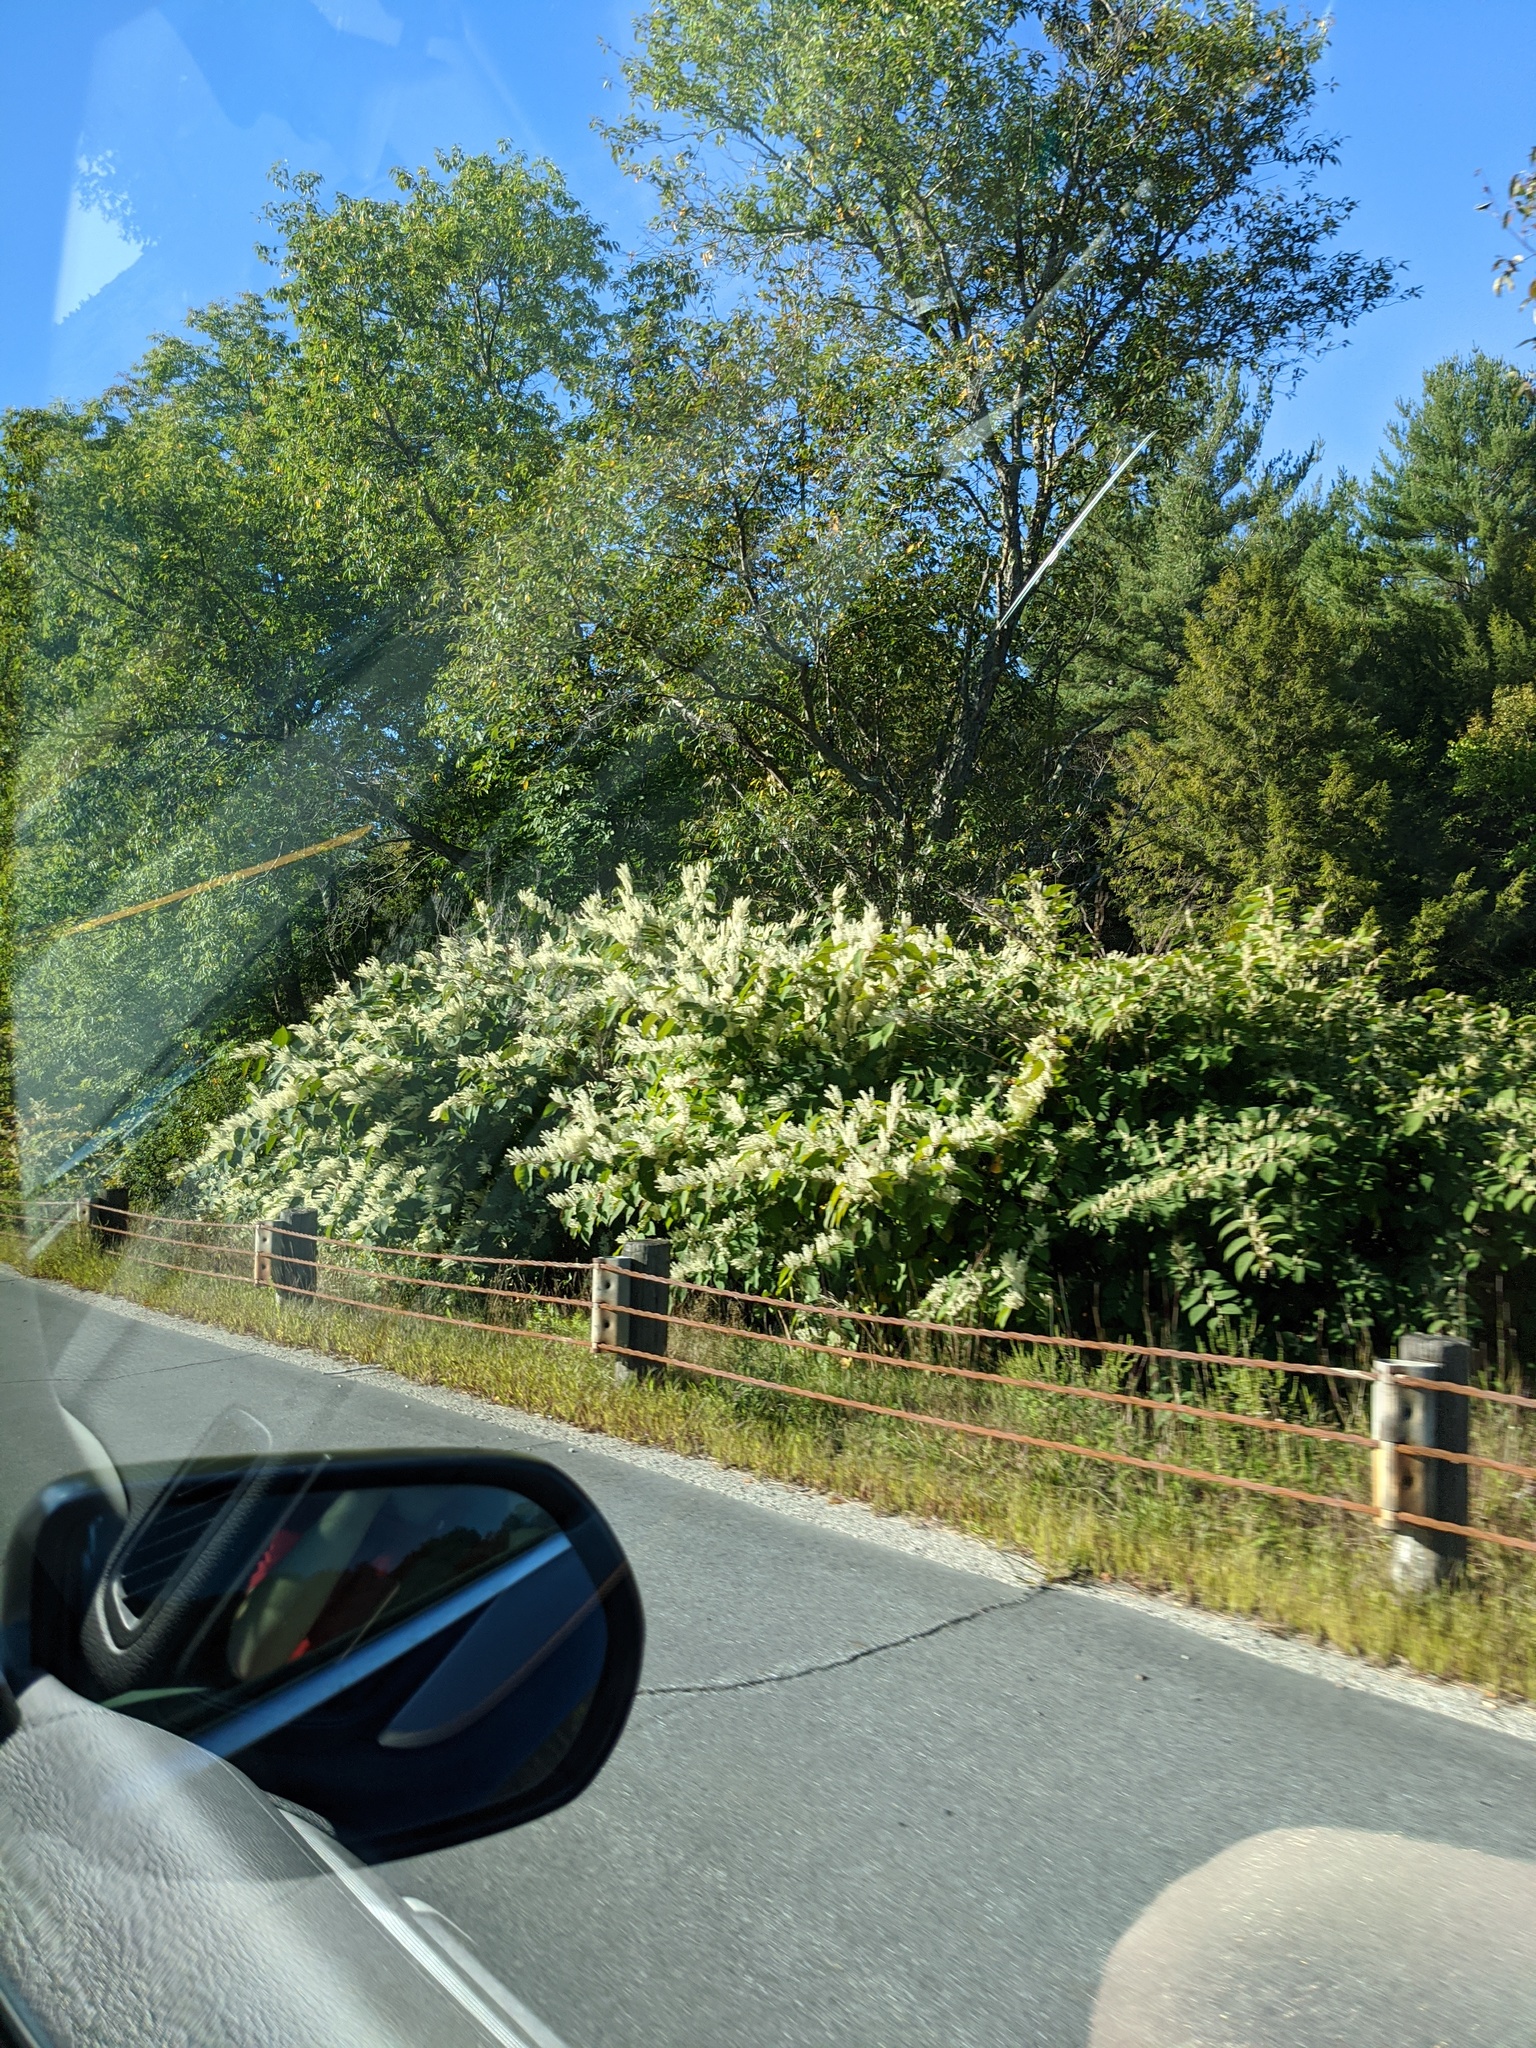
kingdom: Plantae
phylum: Tracheophyta
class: Magnoliopsida
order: Caryophyllales
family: Polygonaceae
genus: Reynoutria
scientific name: Reynoutria japonica
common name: Japanese knotweed
